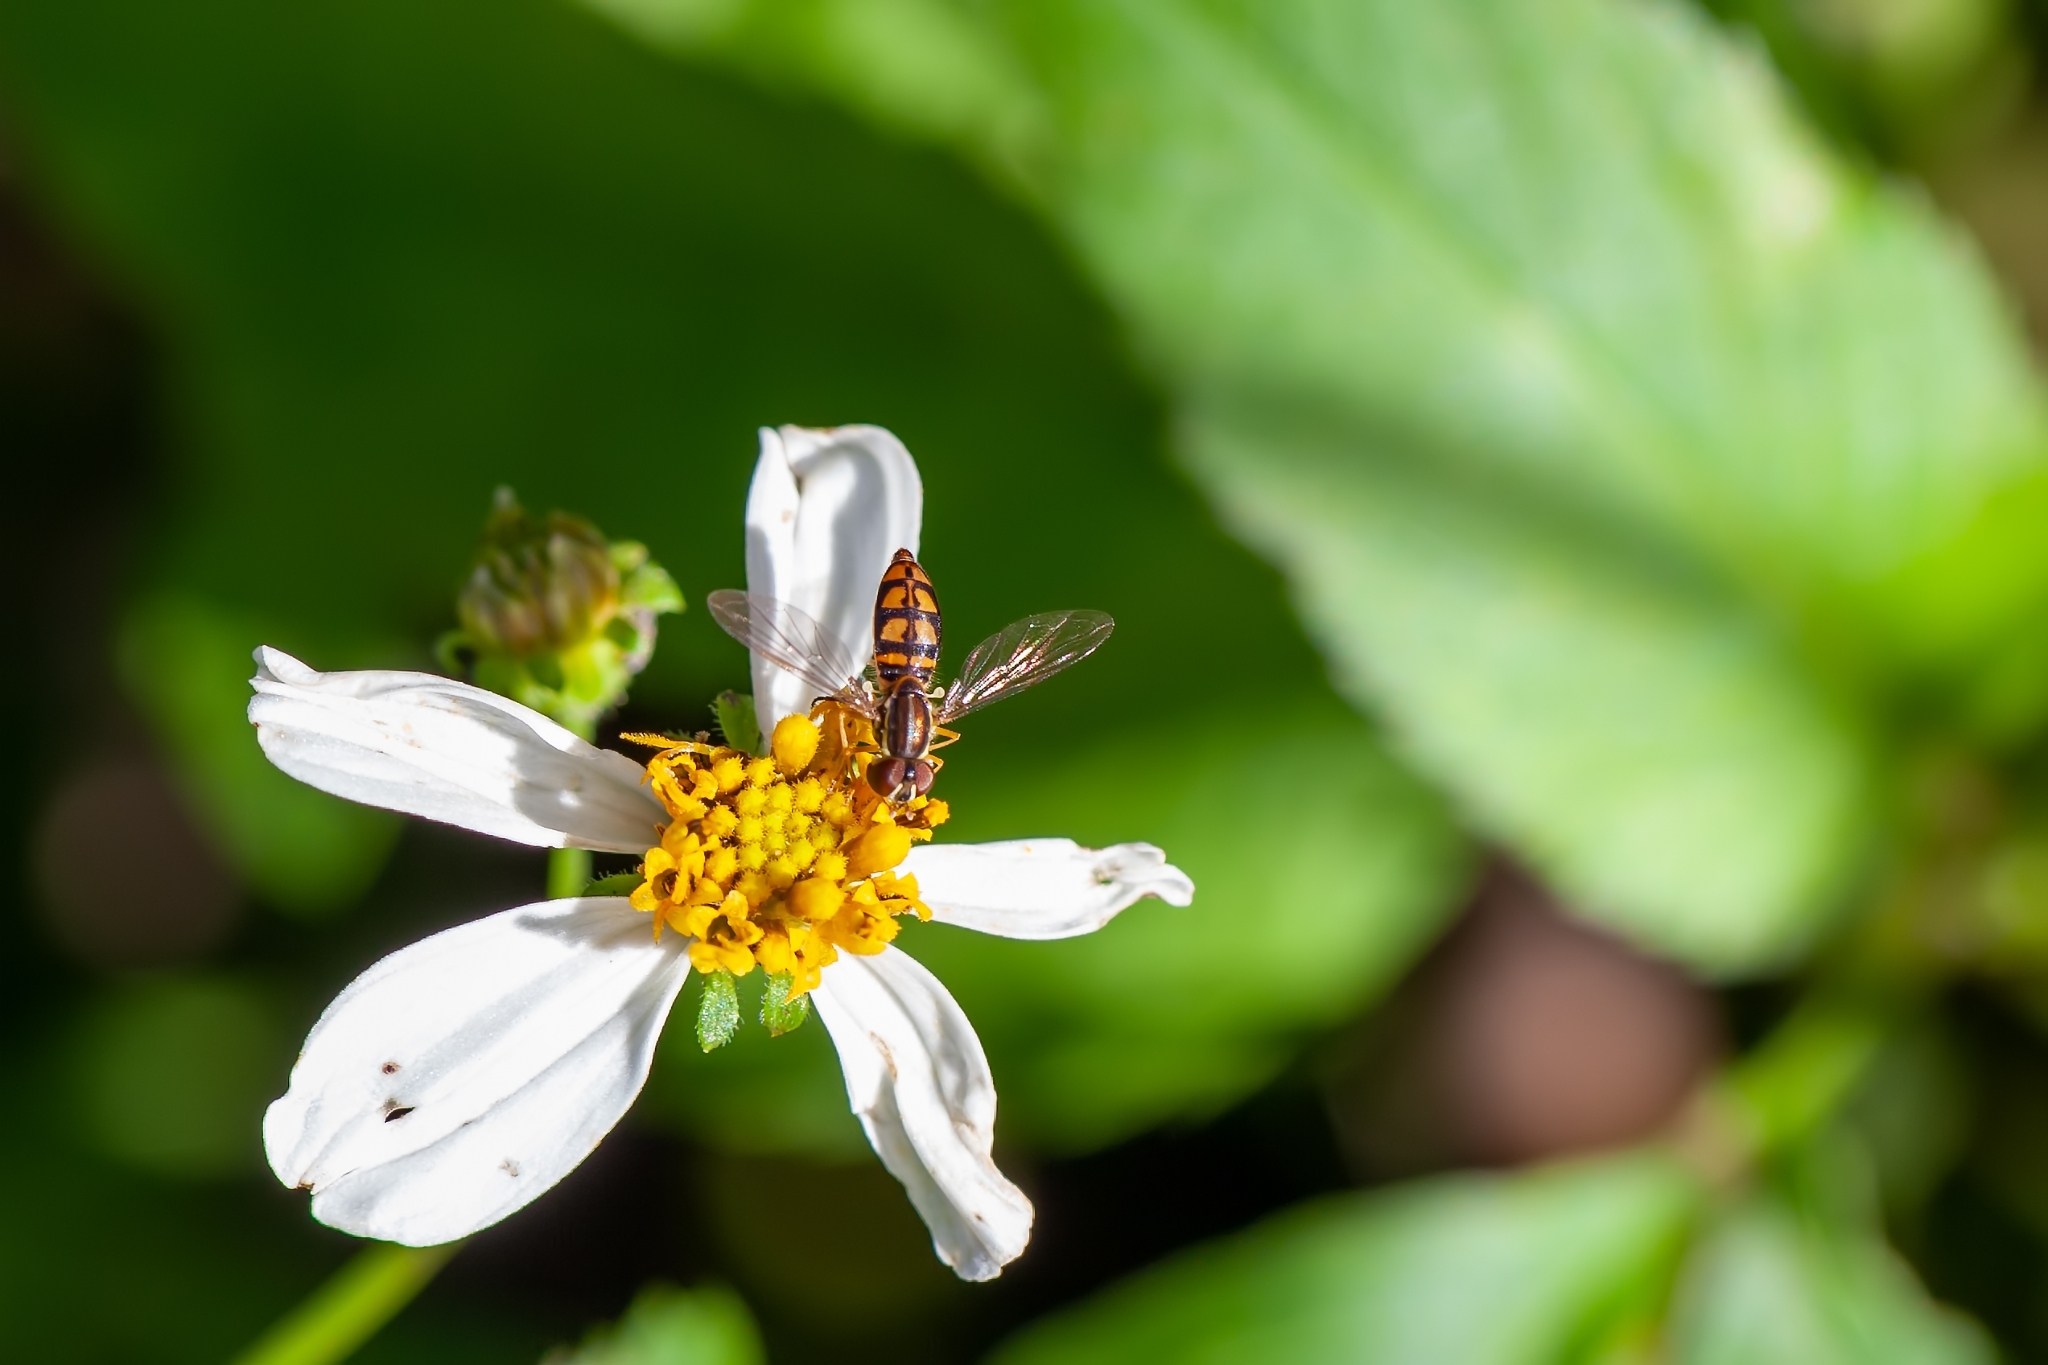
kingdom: Animalia
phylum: Arthropoda
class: Insecta
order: Diptera
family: Syrphidae
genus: Toxomerus
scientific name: Toxomerus floralis
